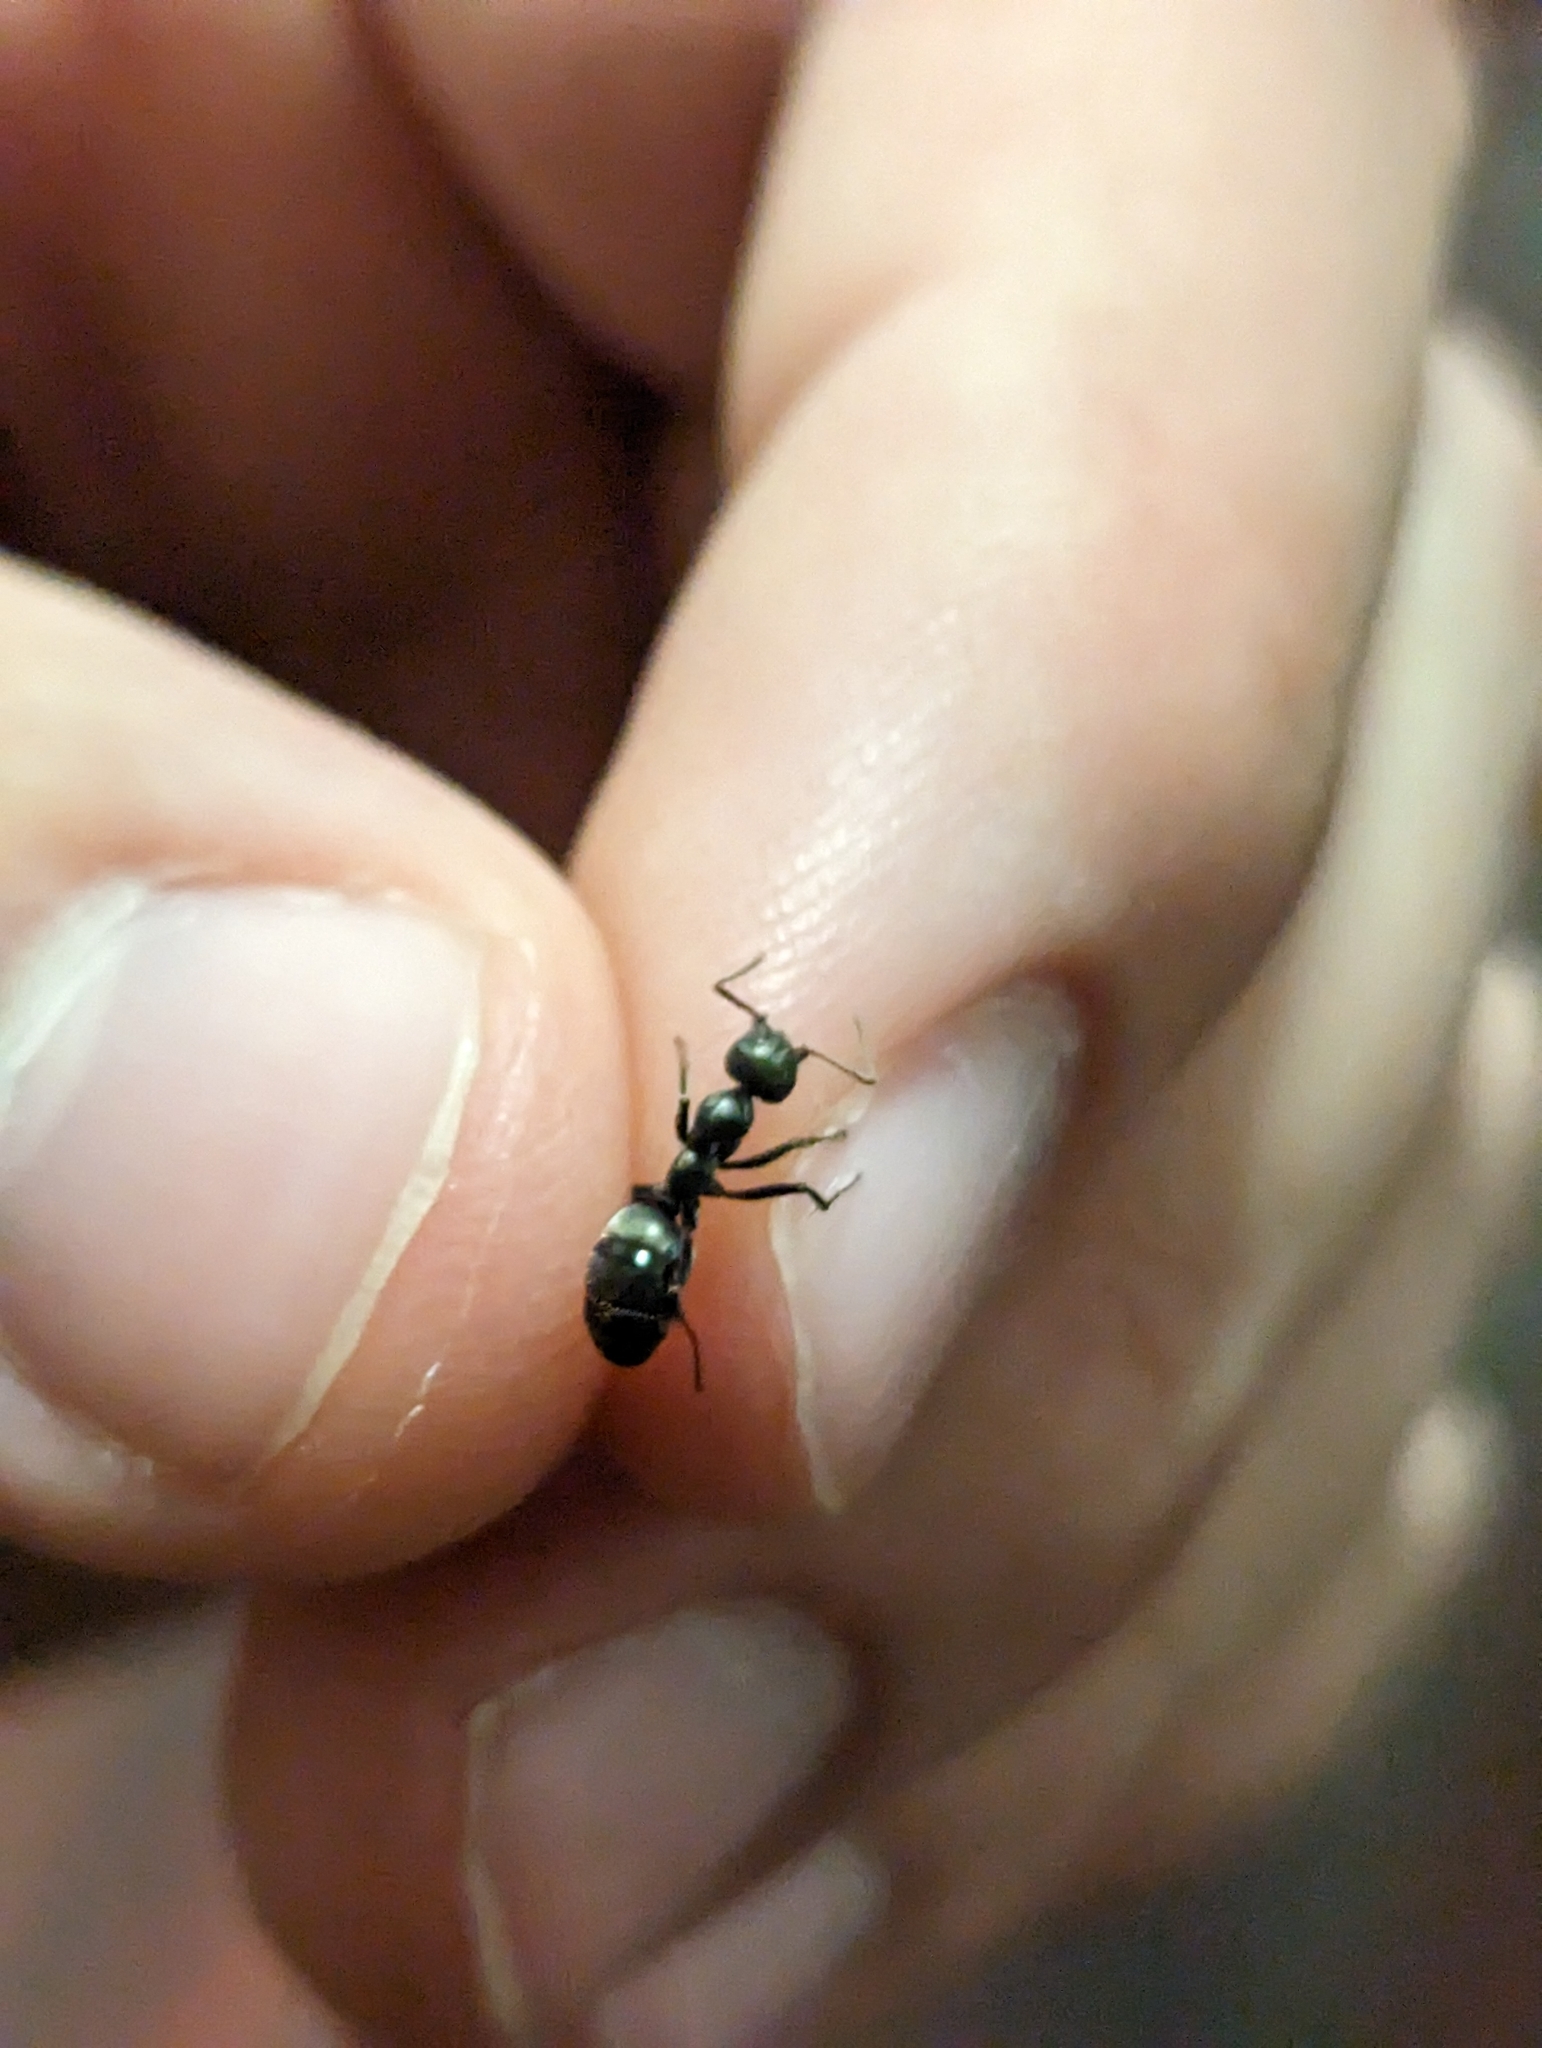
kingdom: Animalia
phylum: Arthropoda
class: Insecta
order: Hymenoptera
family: Formicidae
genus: Formica
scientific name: Formica subsericea
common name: Silky field ant
